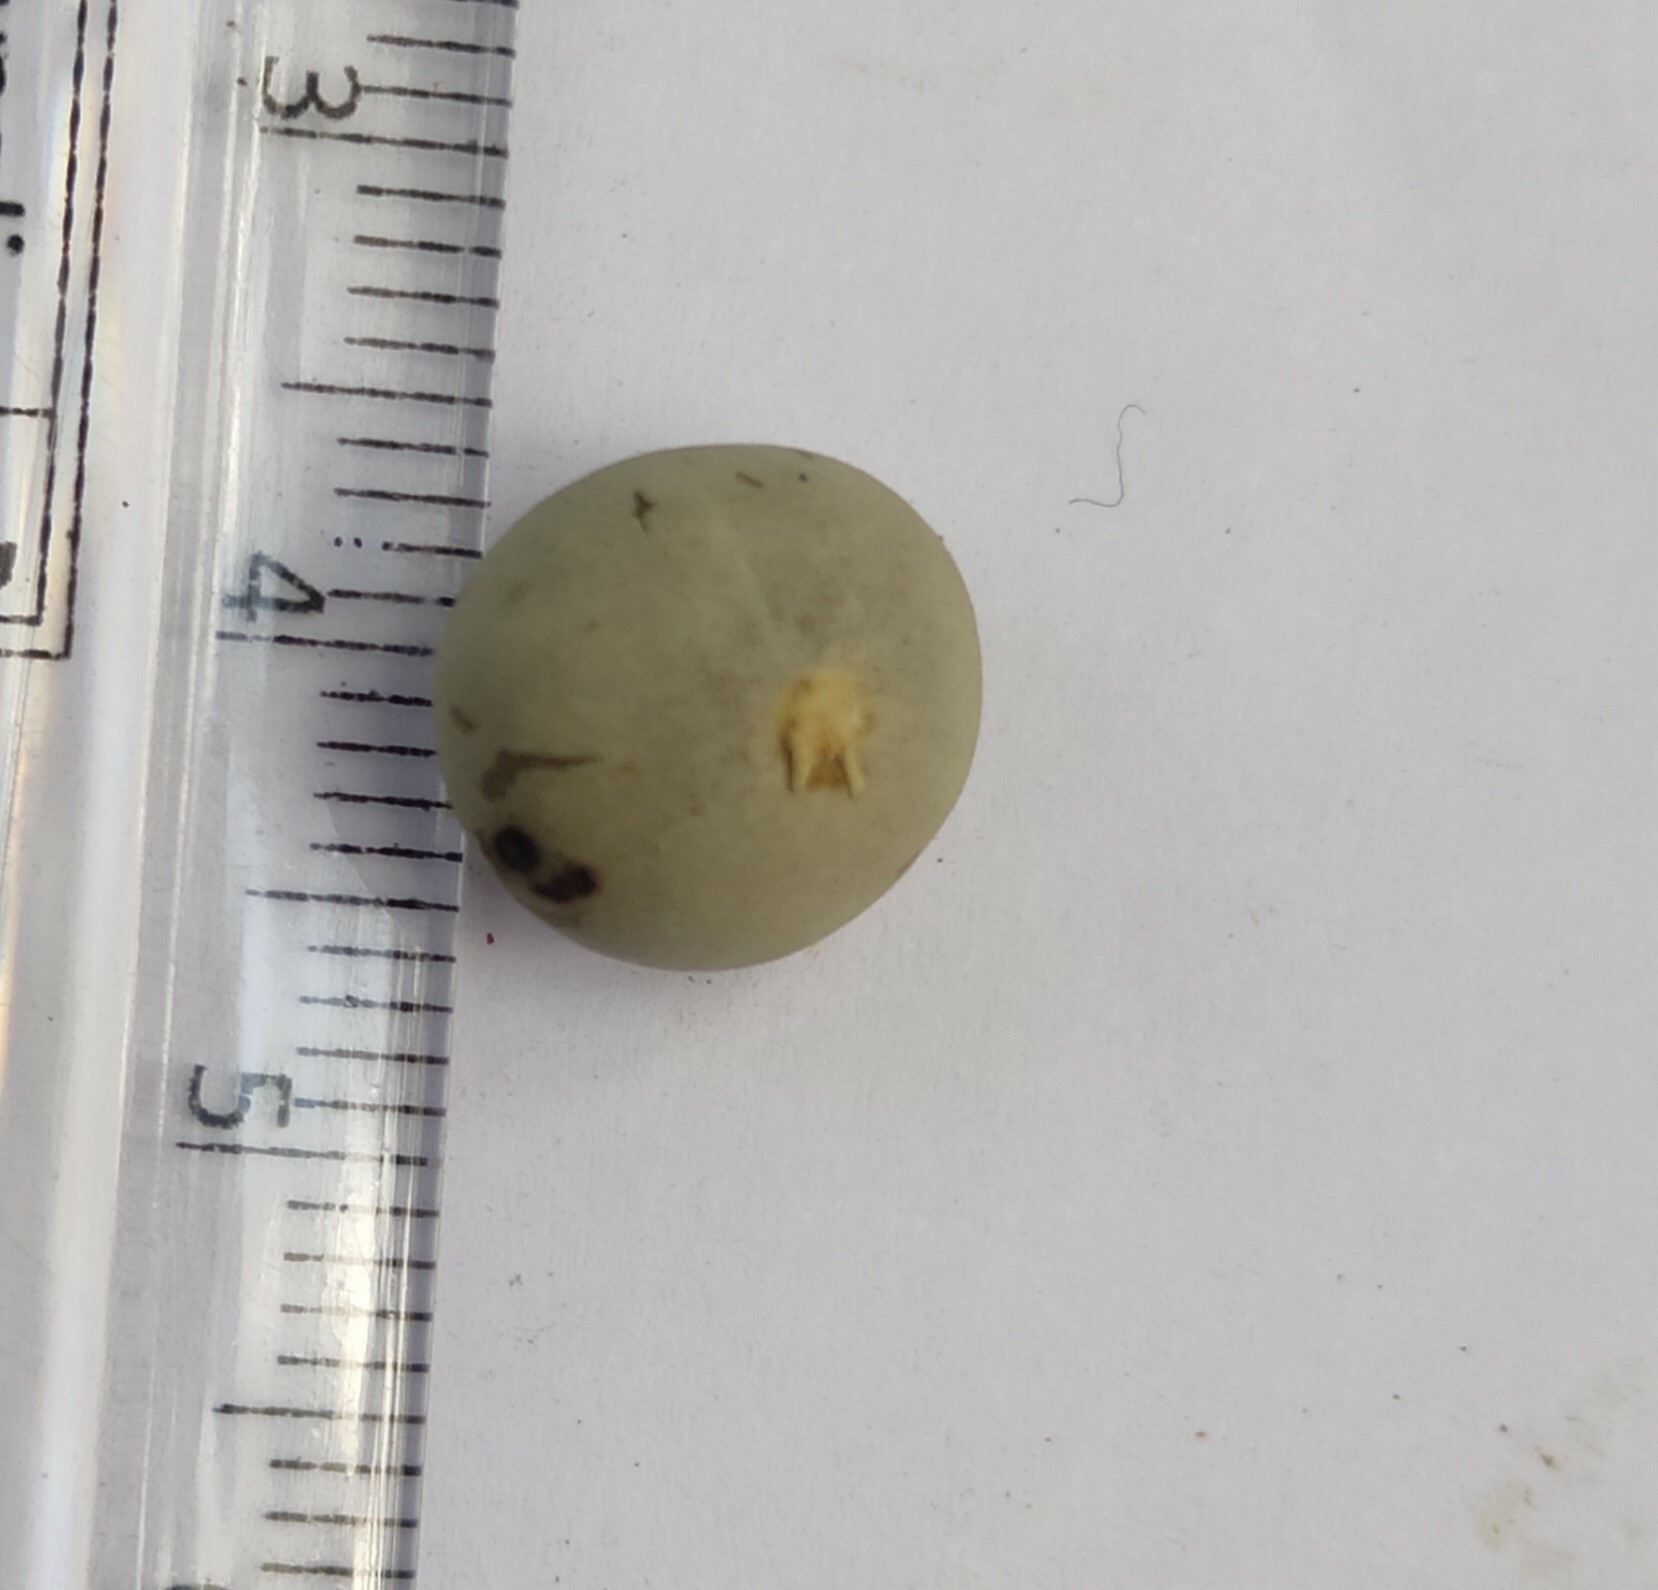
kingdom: Plantae
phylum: Tracheophyta
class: Magnoliopsida
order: Laurales
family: Lauraceae
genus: Machilus
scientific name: Machilus glaucescens
